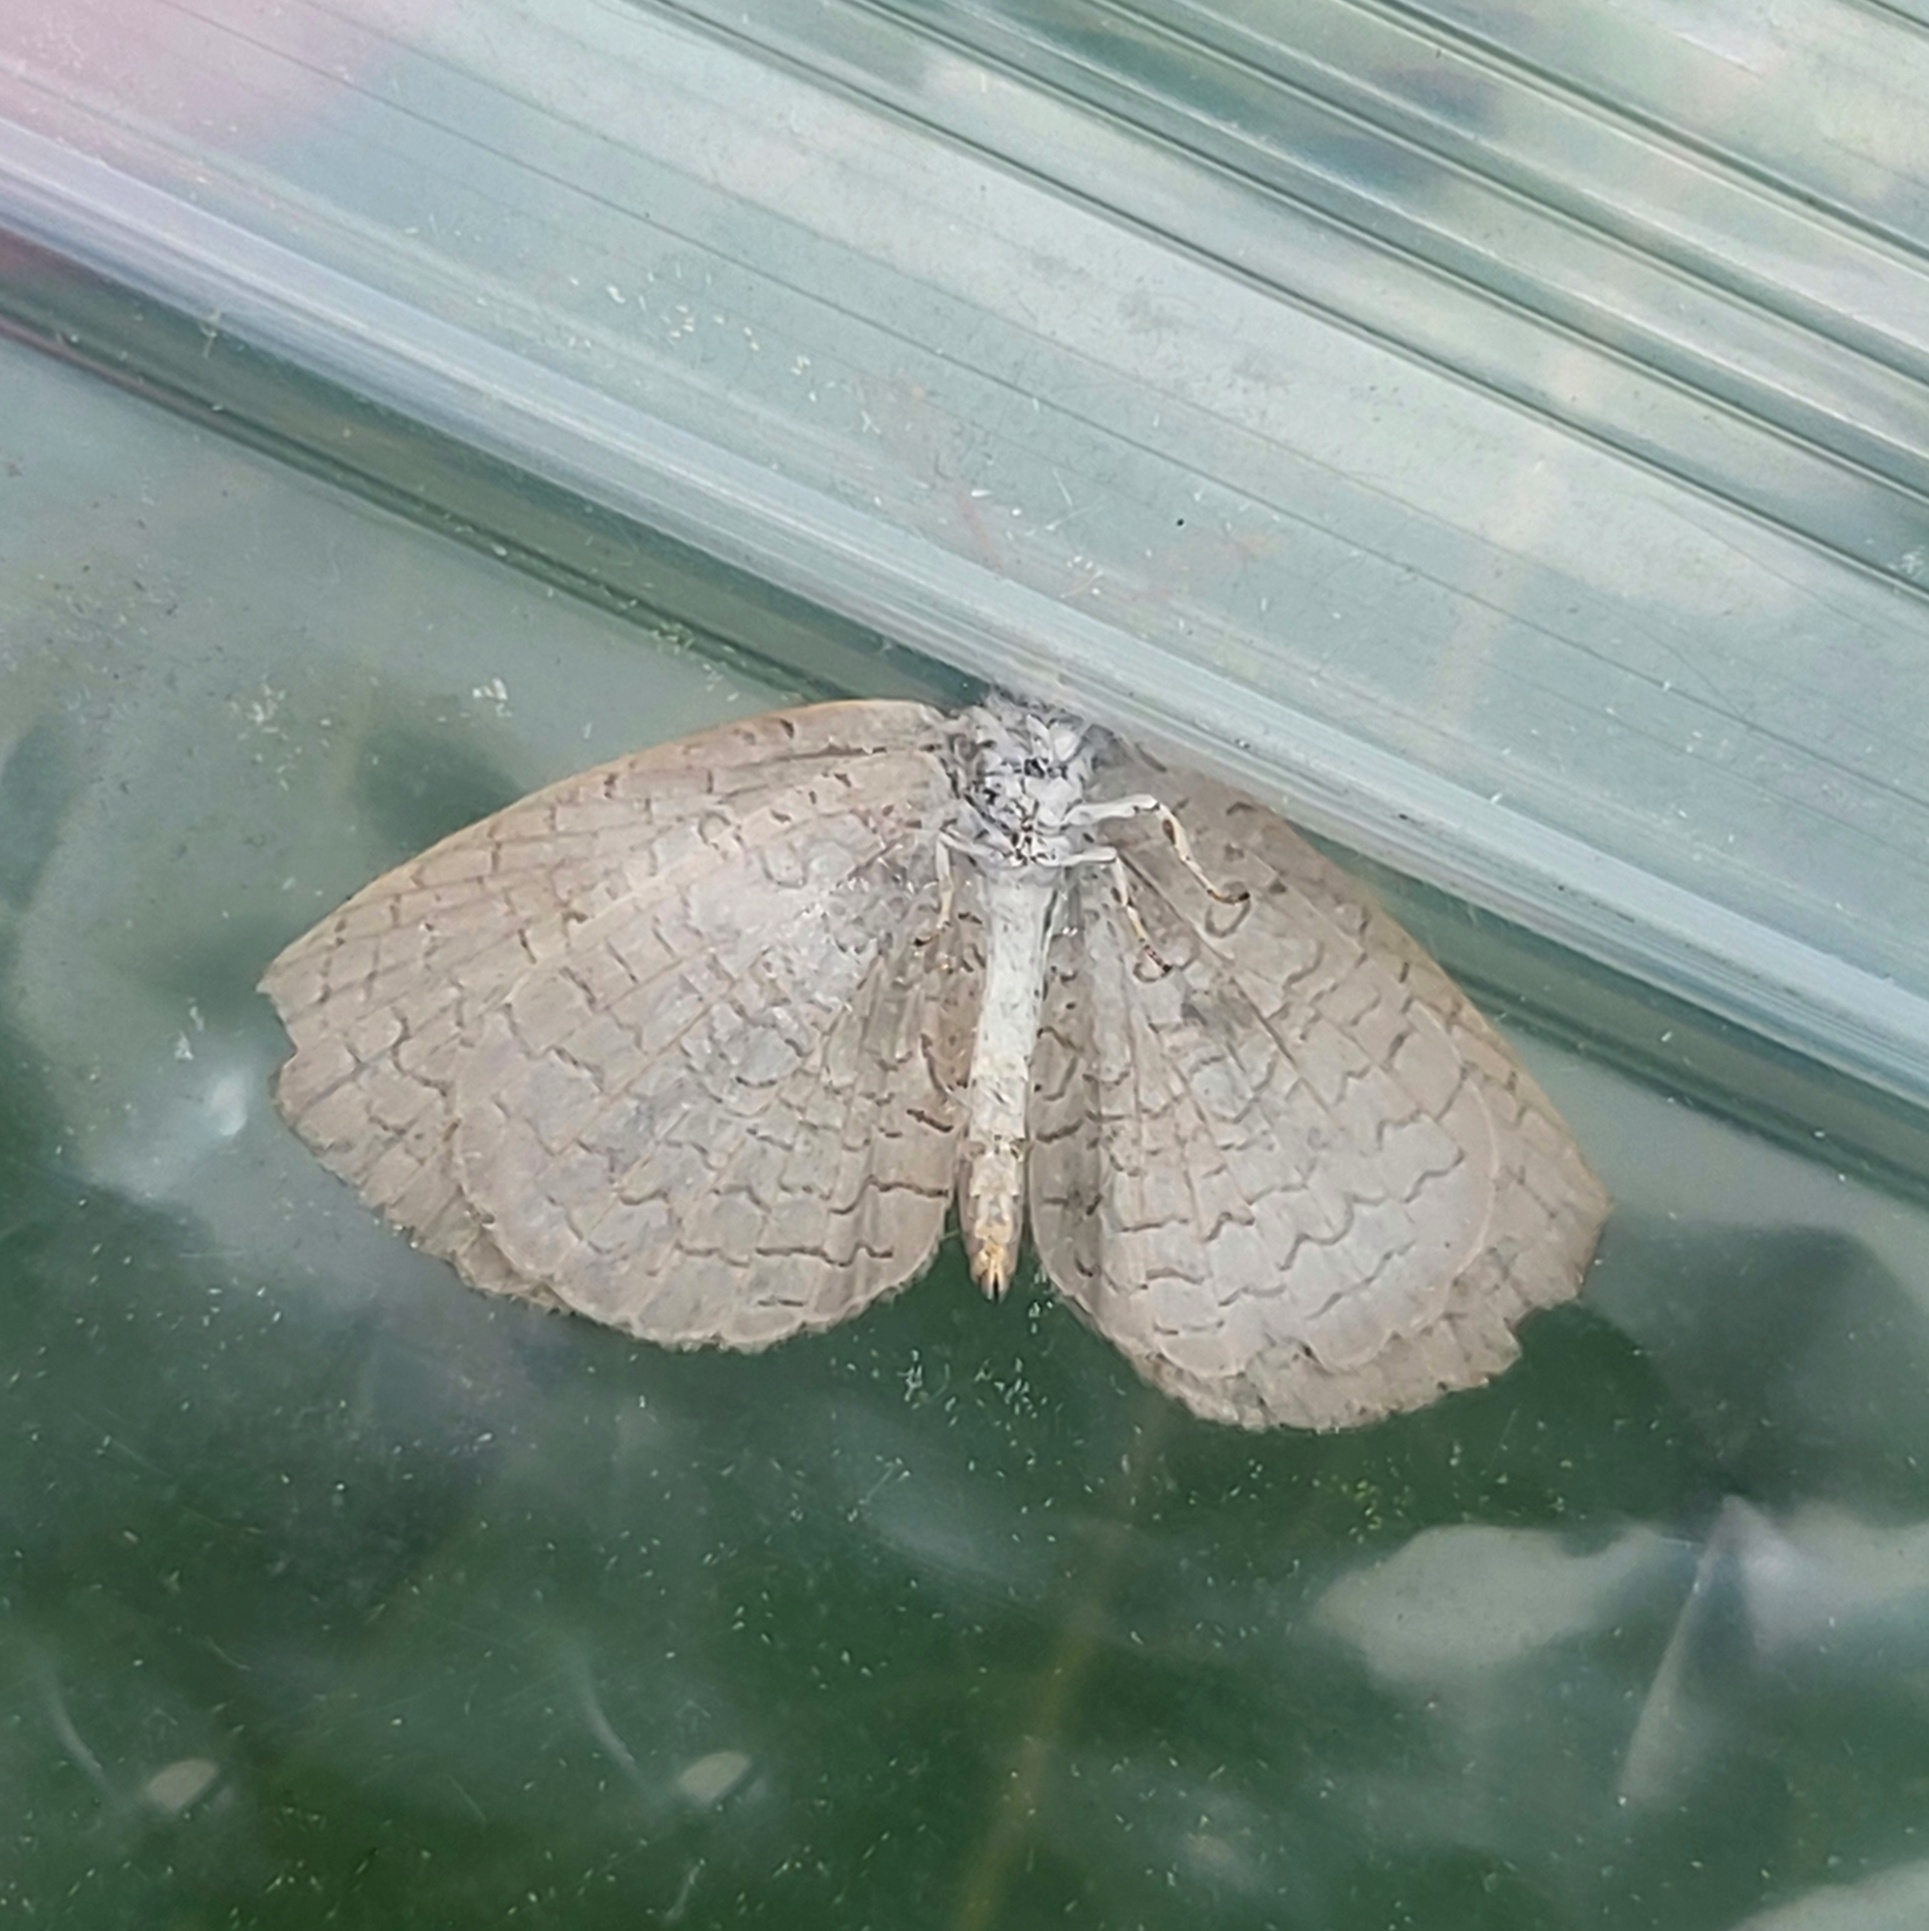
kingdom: Animalia
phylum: Arthropoda
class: Insecta
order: Lepidoptera
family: Lycaenidae
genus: Spalgis
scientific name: Spalgis epius
